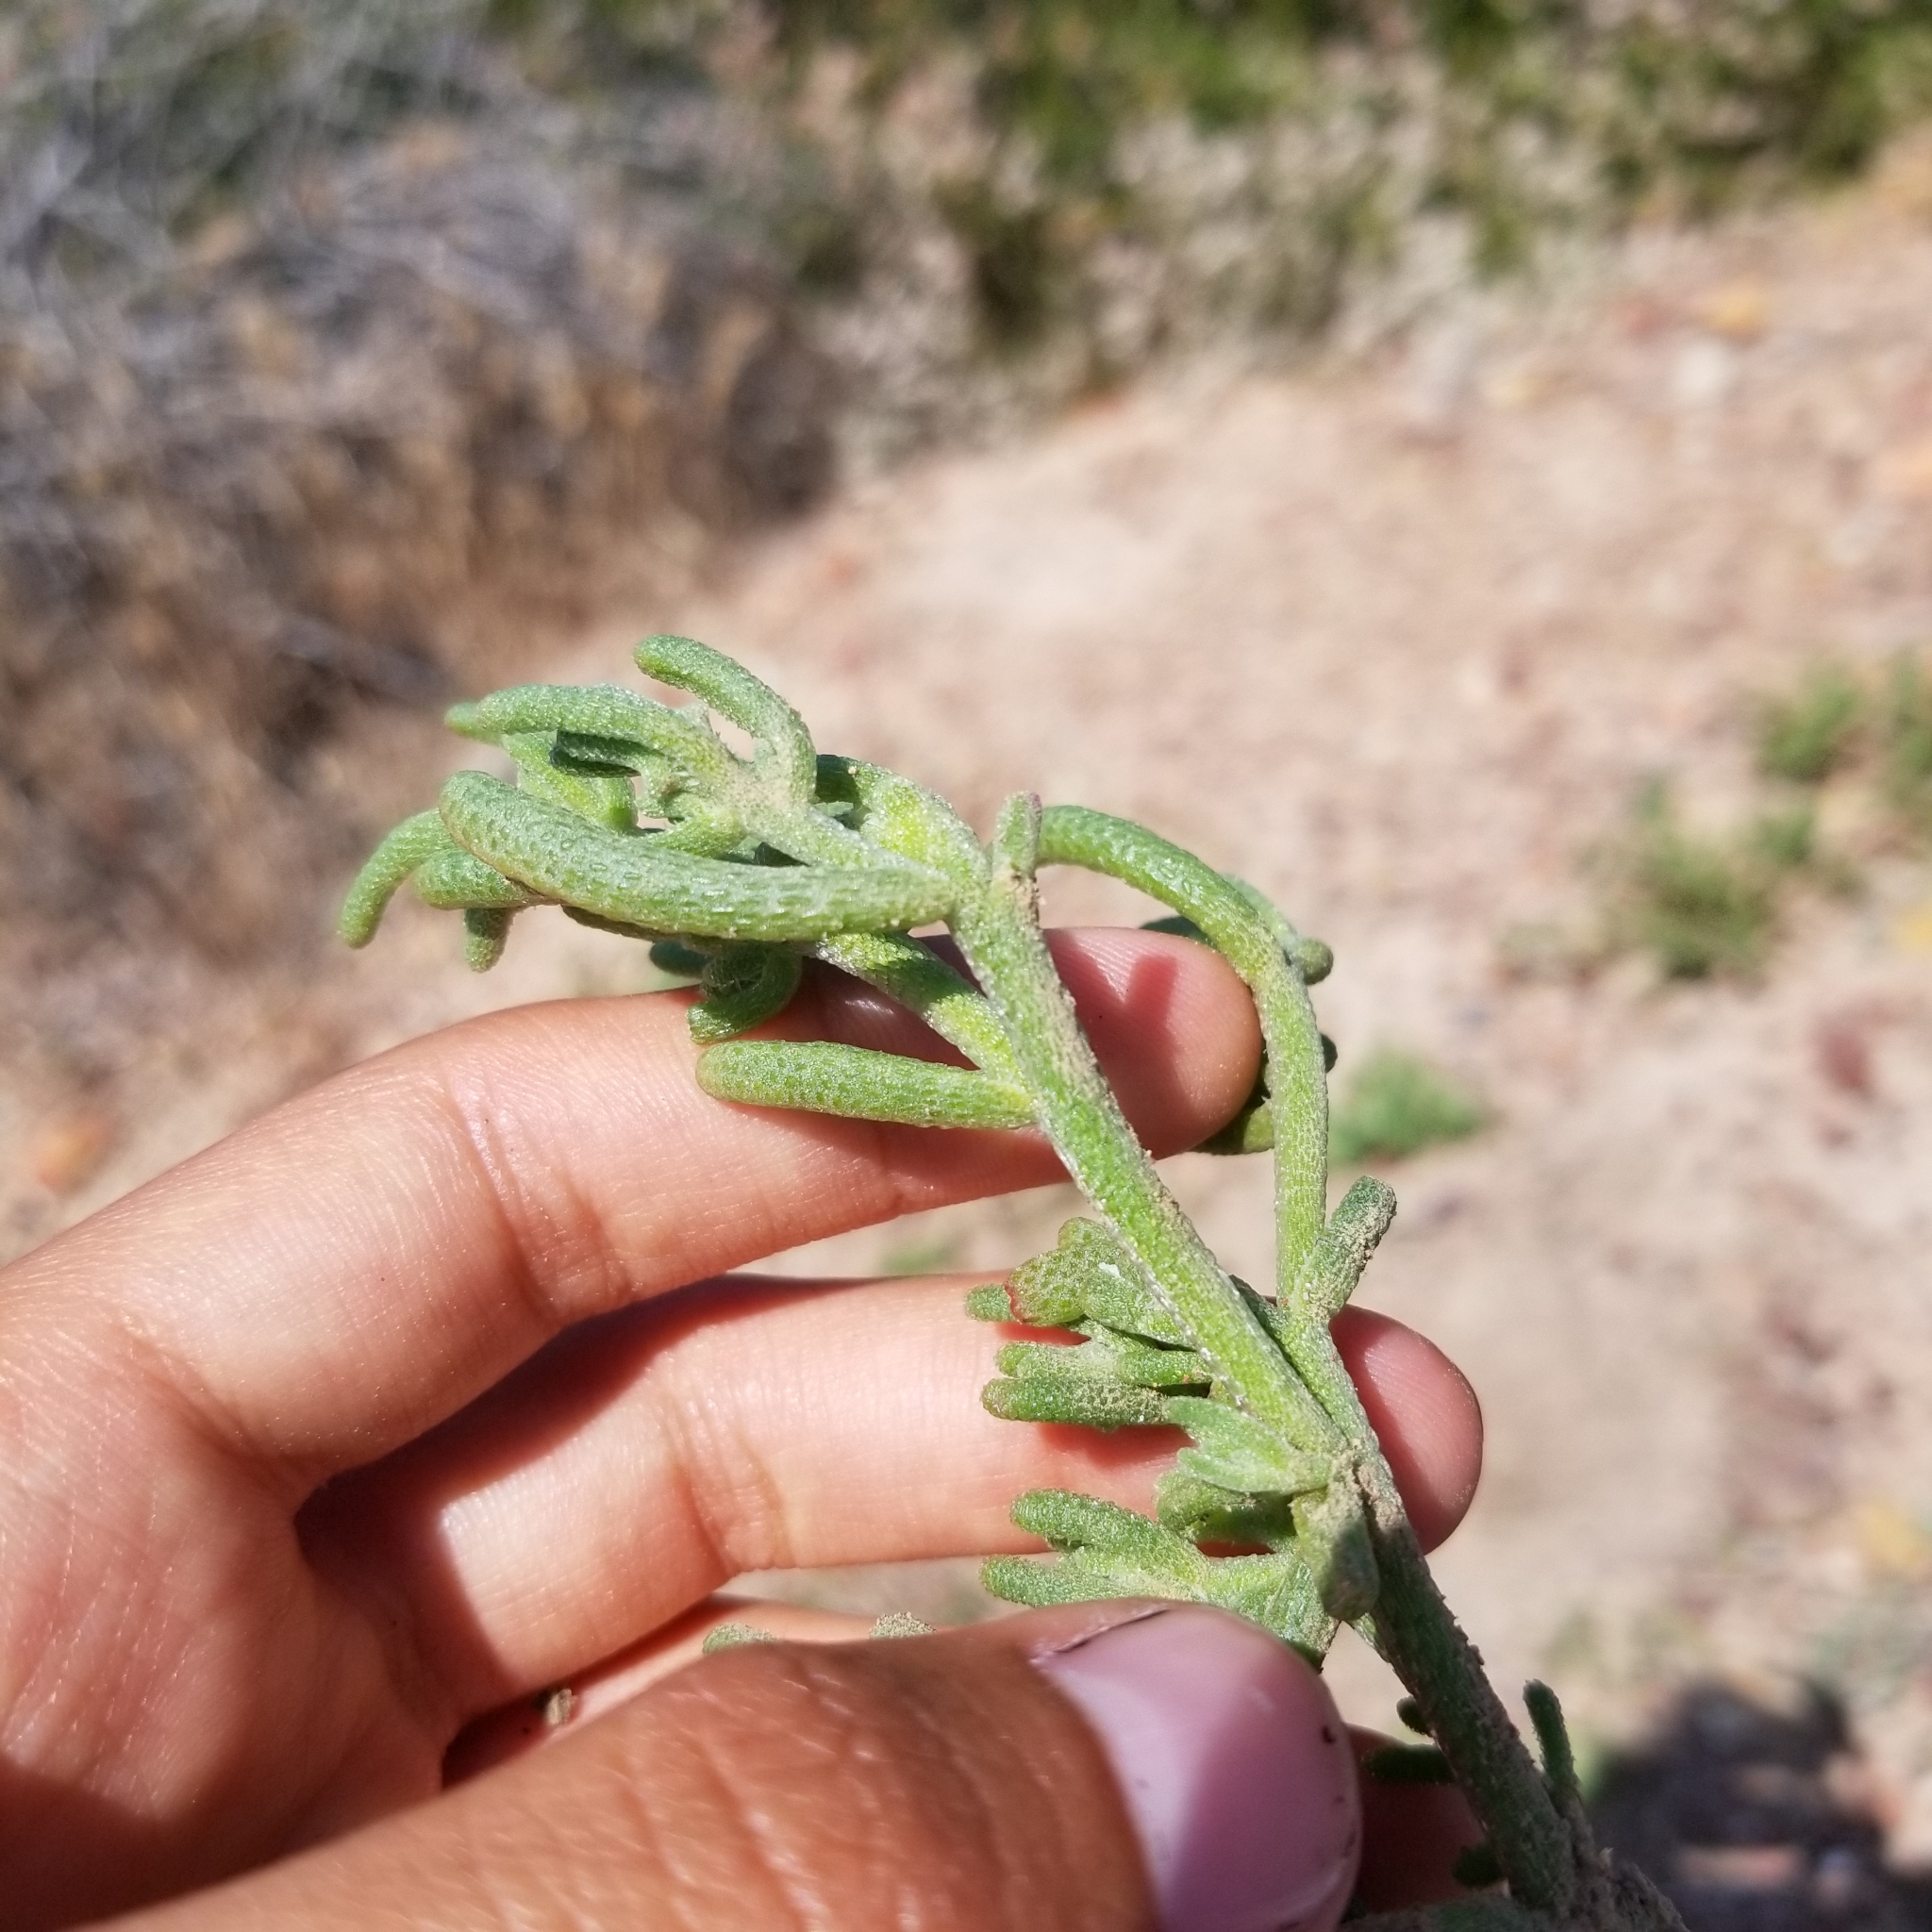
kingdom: Plantae
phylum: Tracheophyta
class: Magnoliopsida
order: Caryophyllales
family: Aizoaceae
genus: Mesembryanthemum
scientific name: Mesembryanthemum nodiflorum
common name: Slenderleaf iceplant
